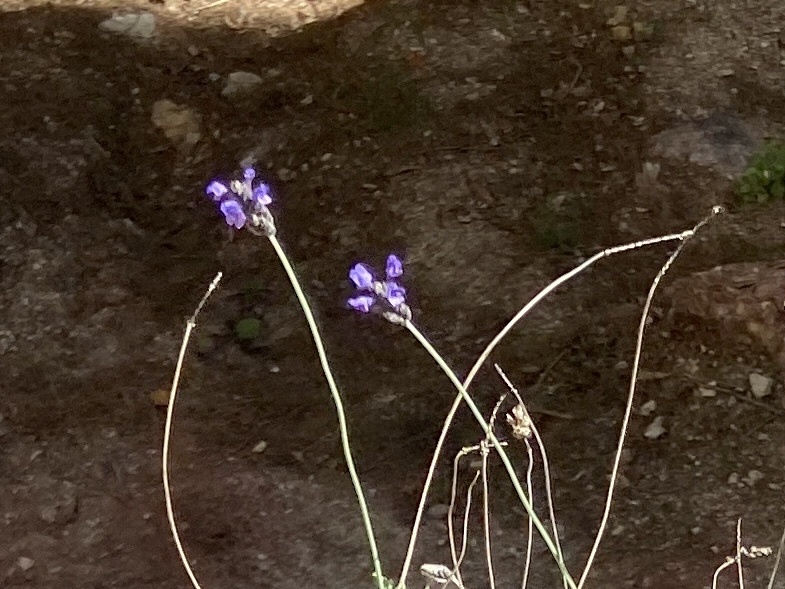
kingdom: Plantae
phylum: Tracheophyta
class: Magnoliopsida
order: Lamiales
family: Lamiaceae
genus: Lavandula
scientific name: Lavandula multifida
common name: Fern-leaf lavender
